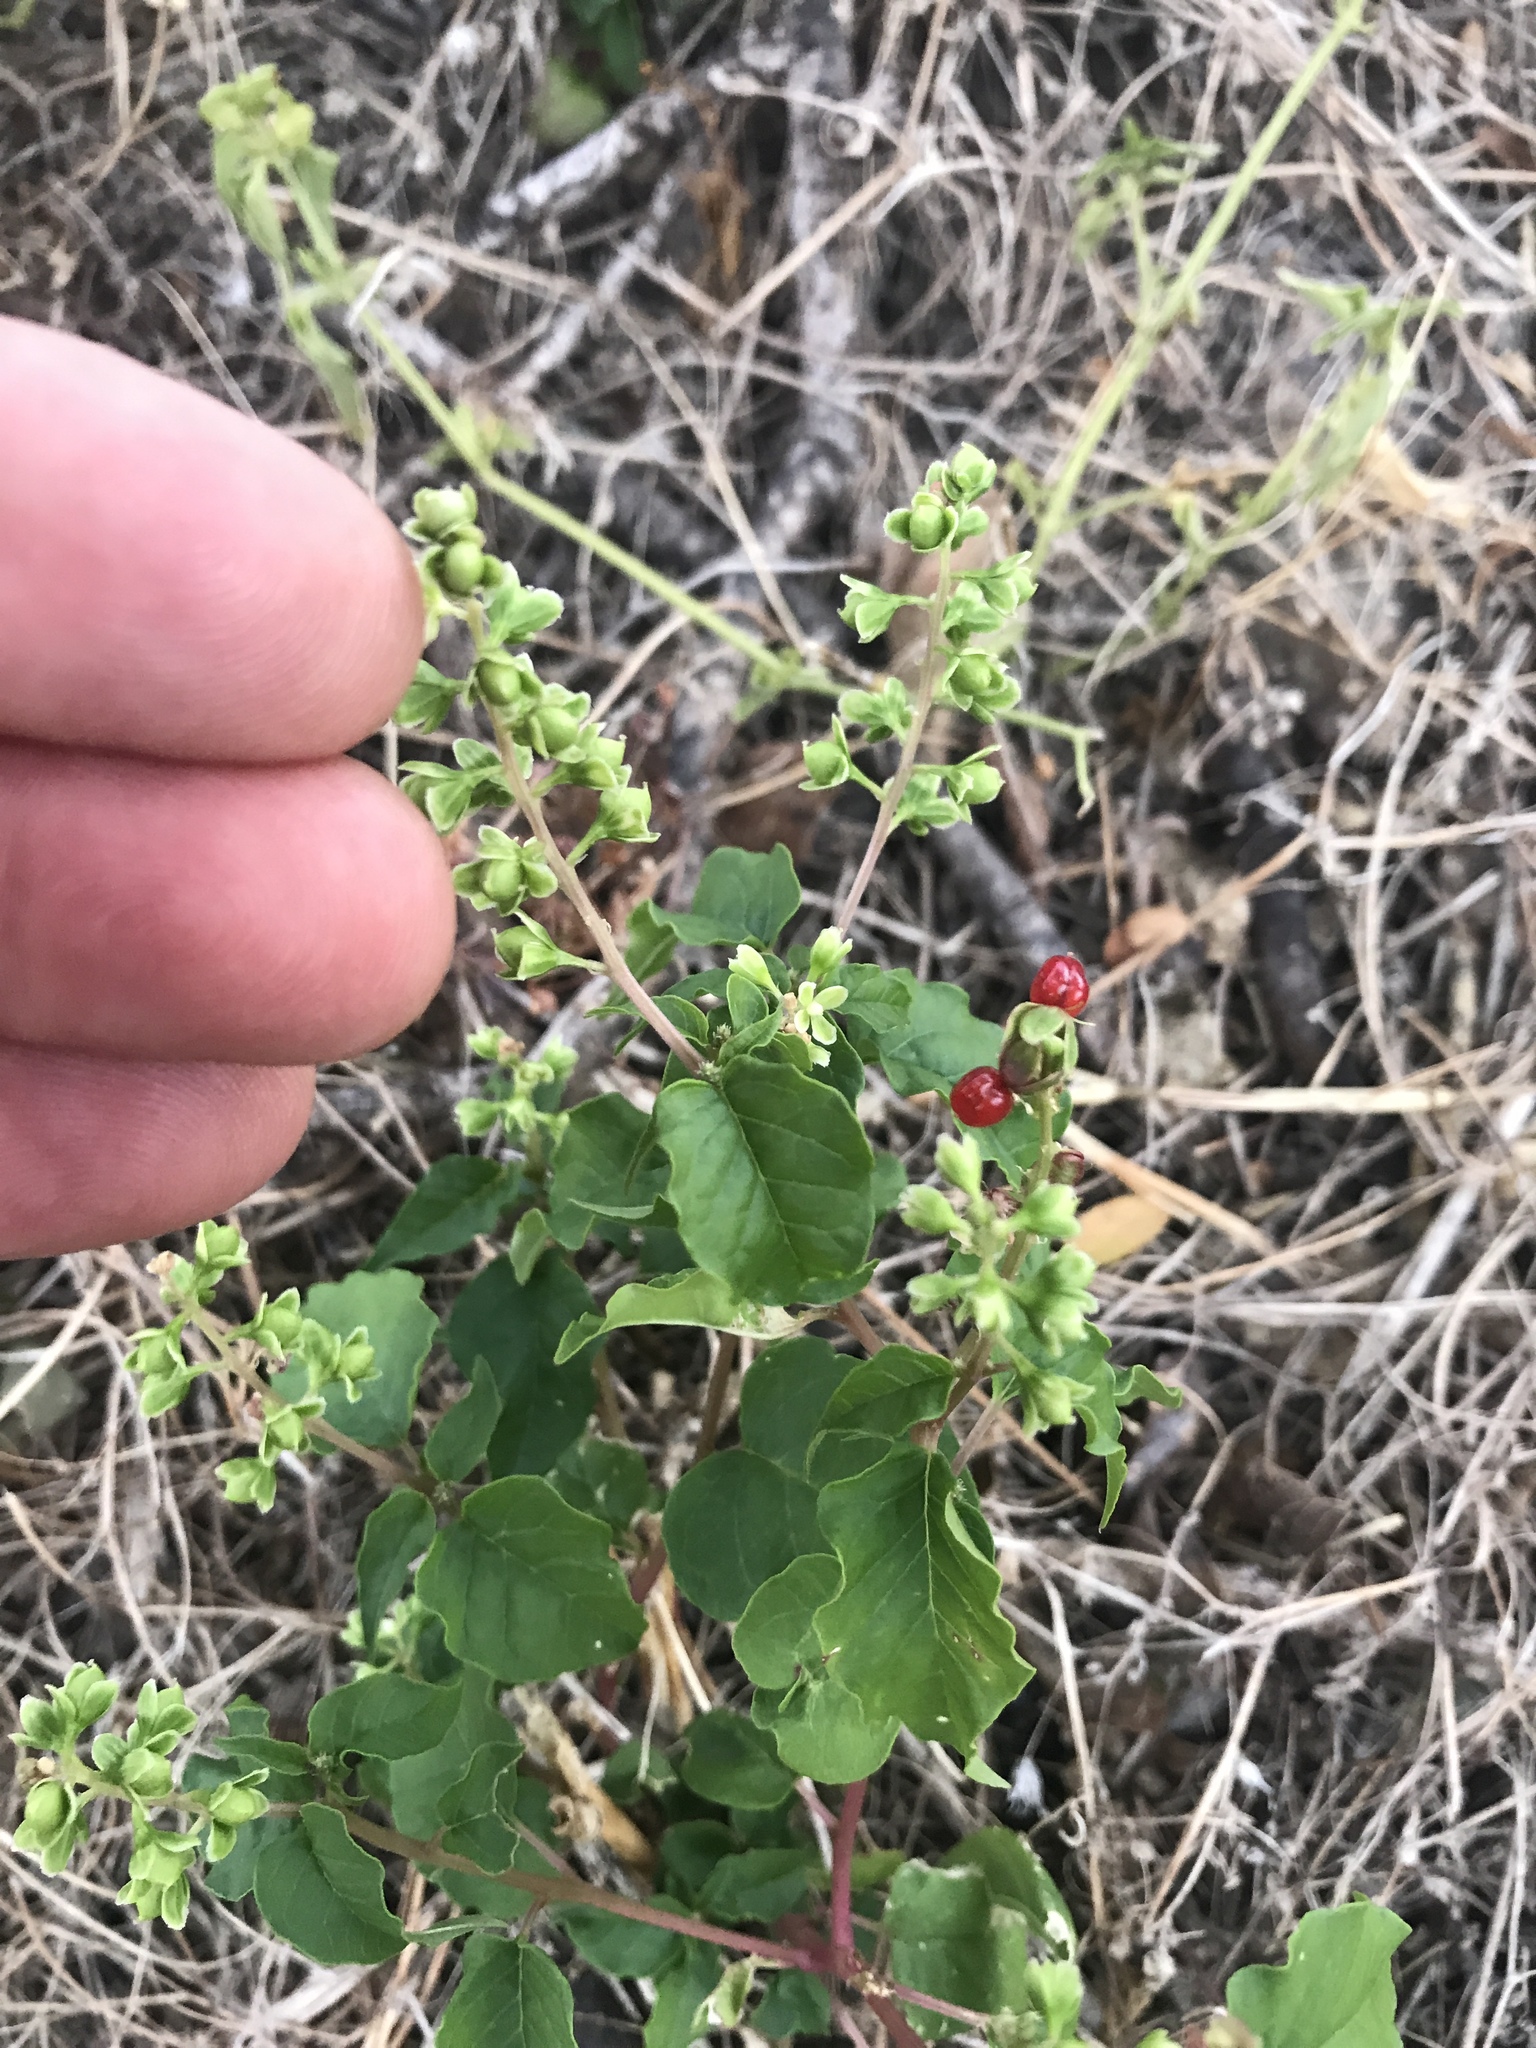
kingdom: Plantae
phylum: Tracheophyta
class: Magnoliopsida
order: Caryophyllales
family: Phytolaccaceae
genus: Rivina
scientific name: Rivina humilis
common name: Rougeplant
